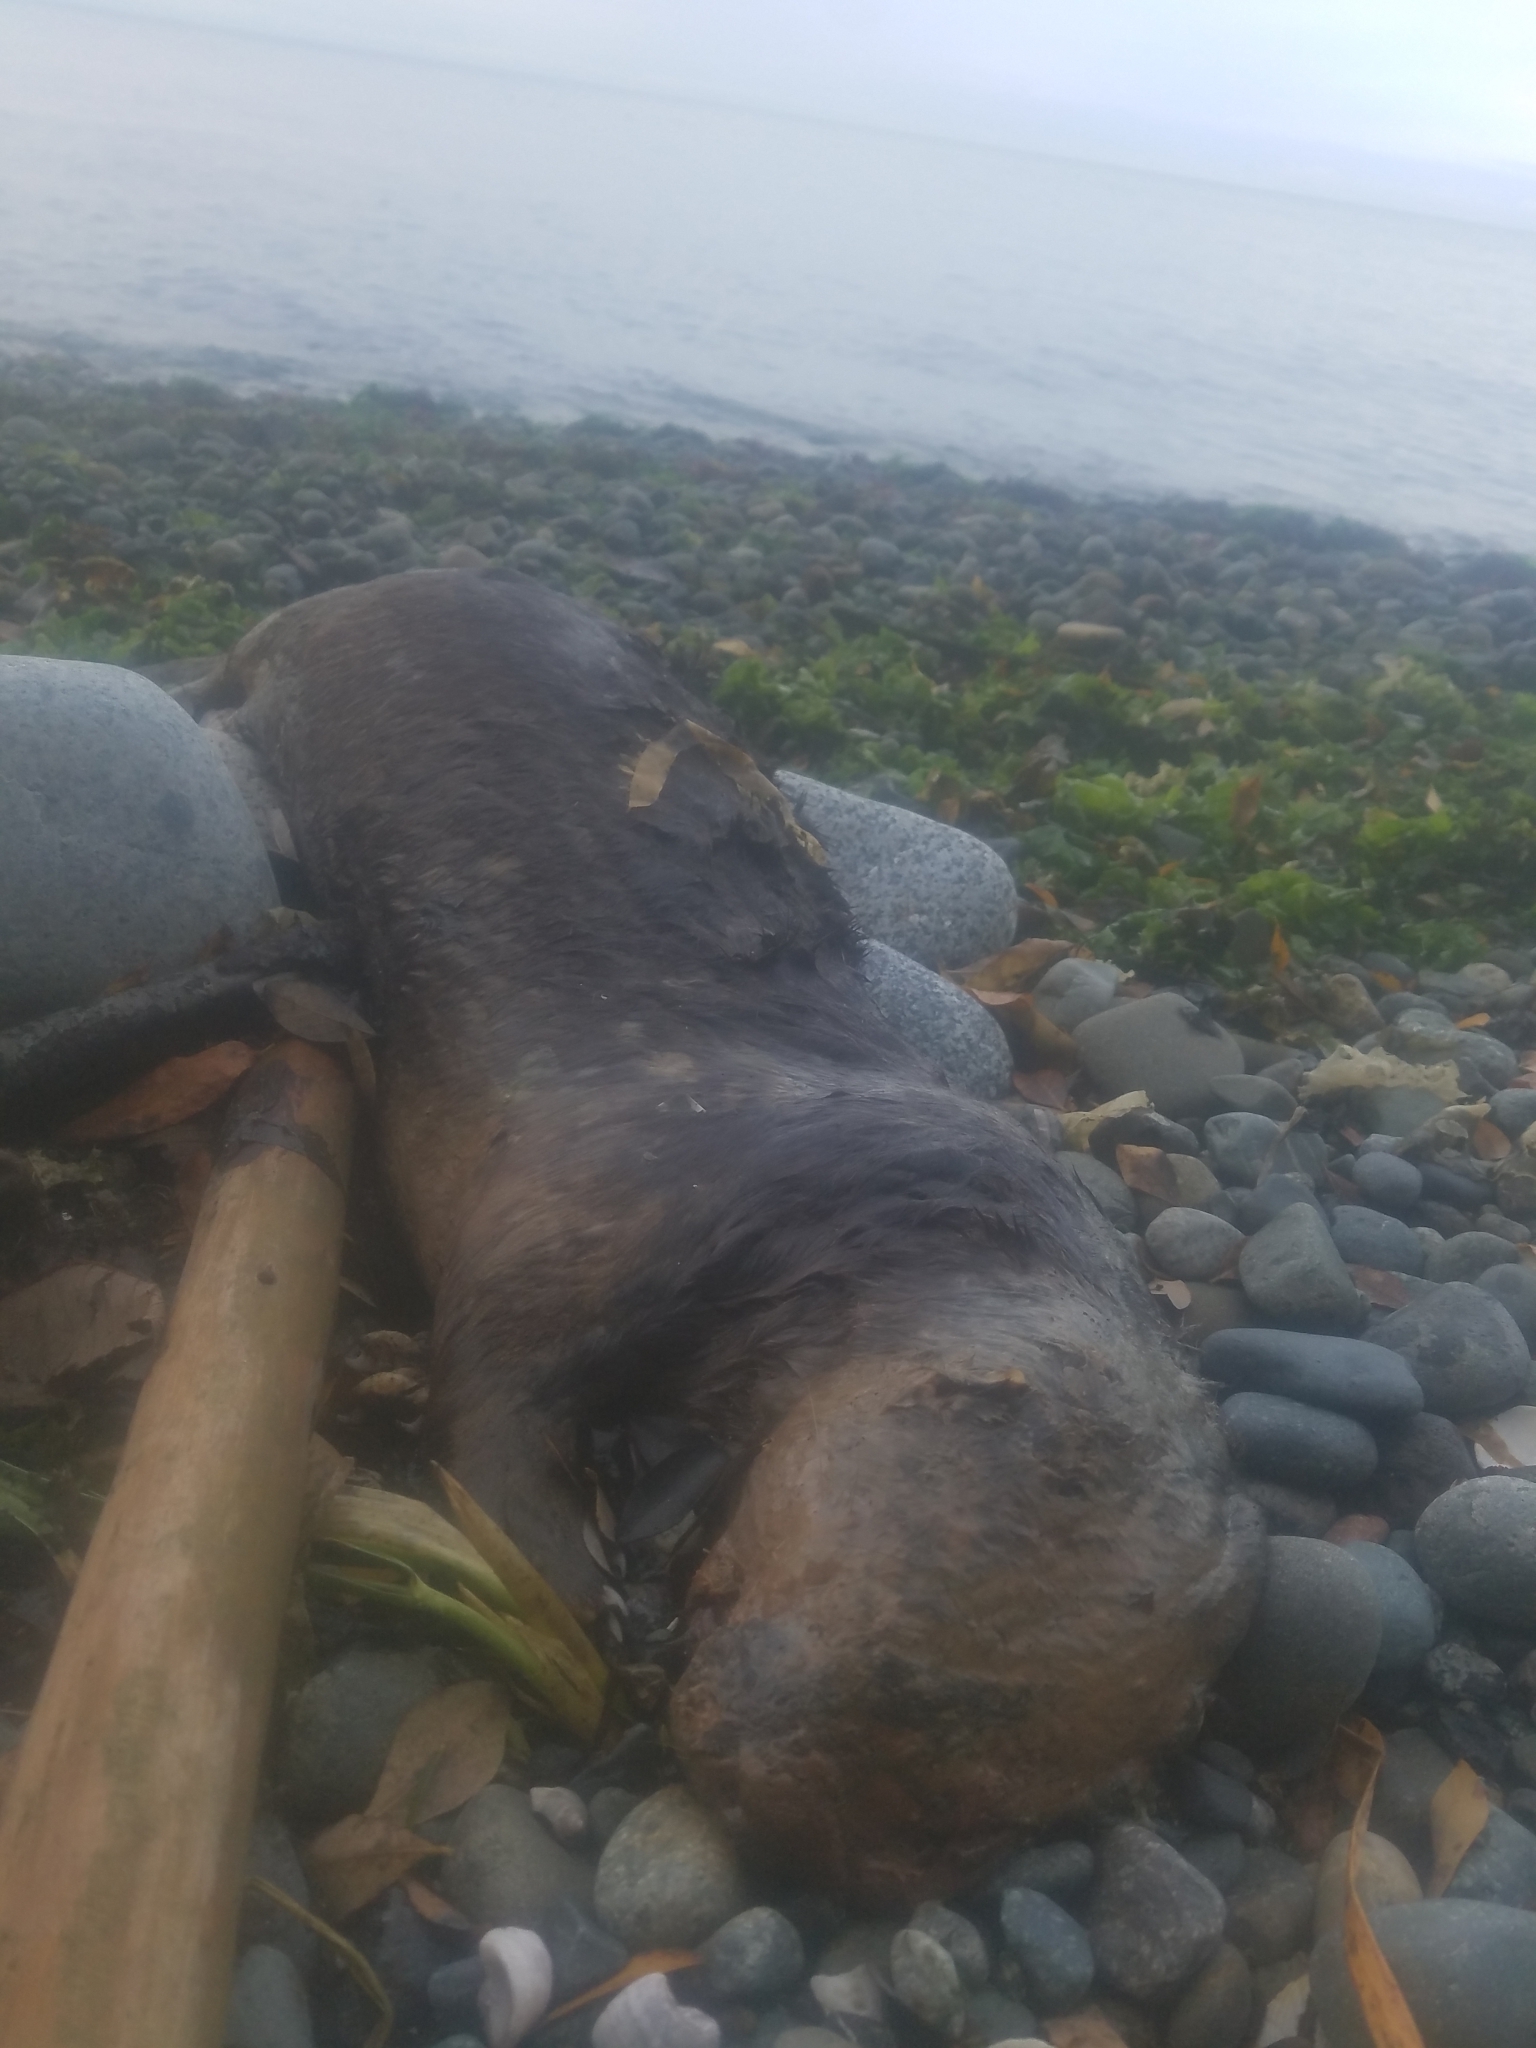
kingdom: Animalia
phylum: Chordata
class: Mammalia
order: Carnivora
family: Mustelidae
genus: Lontra
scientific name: Lontra canadensis
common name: North american river otter
